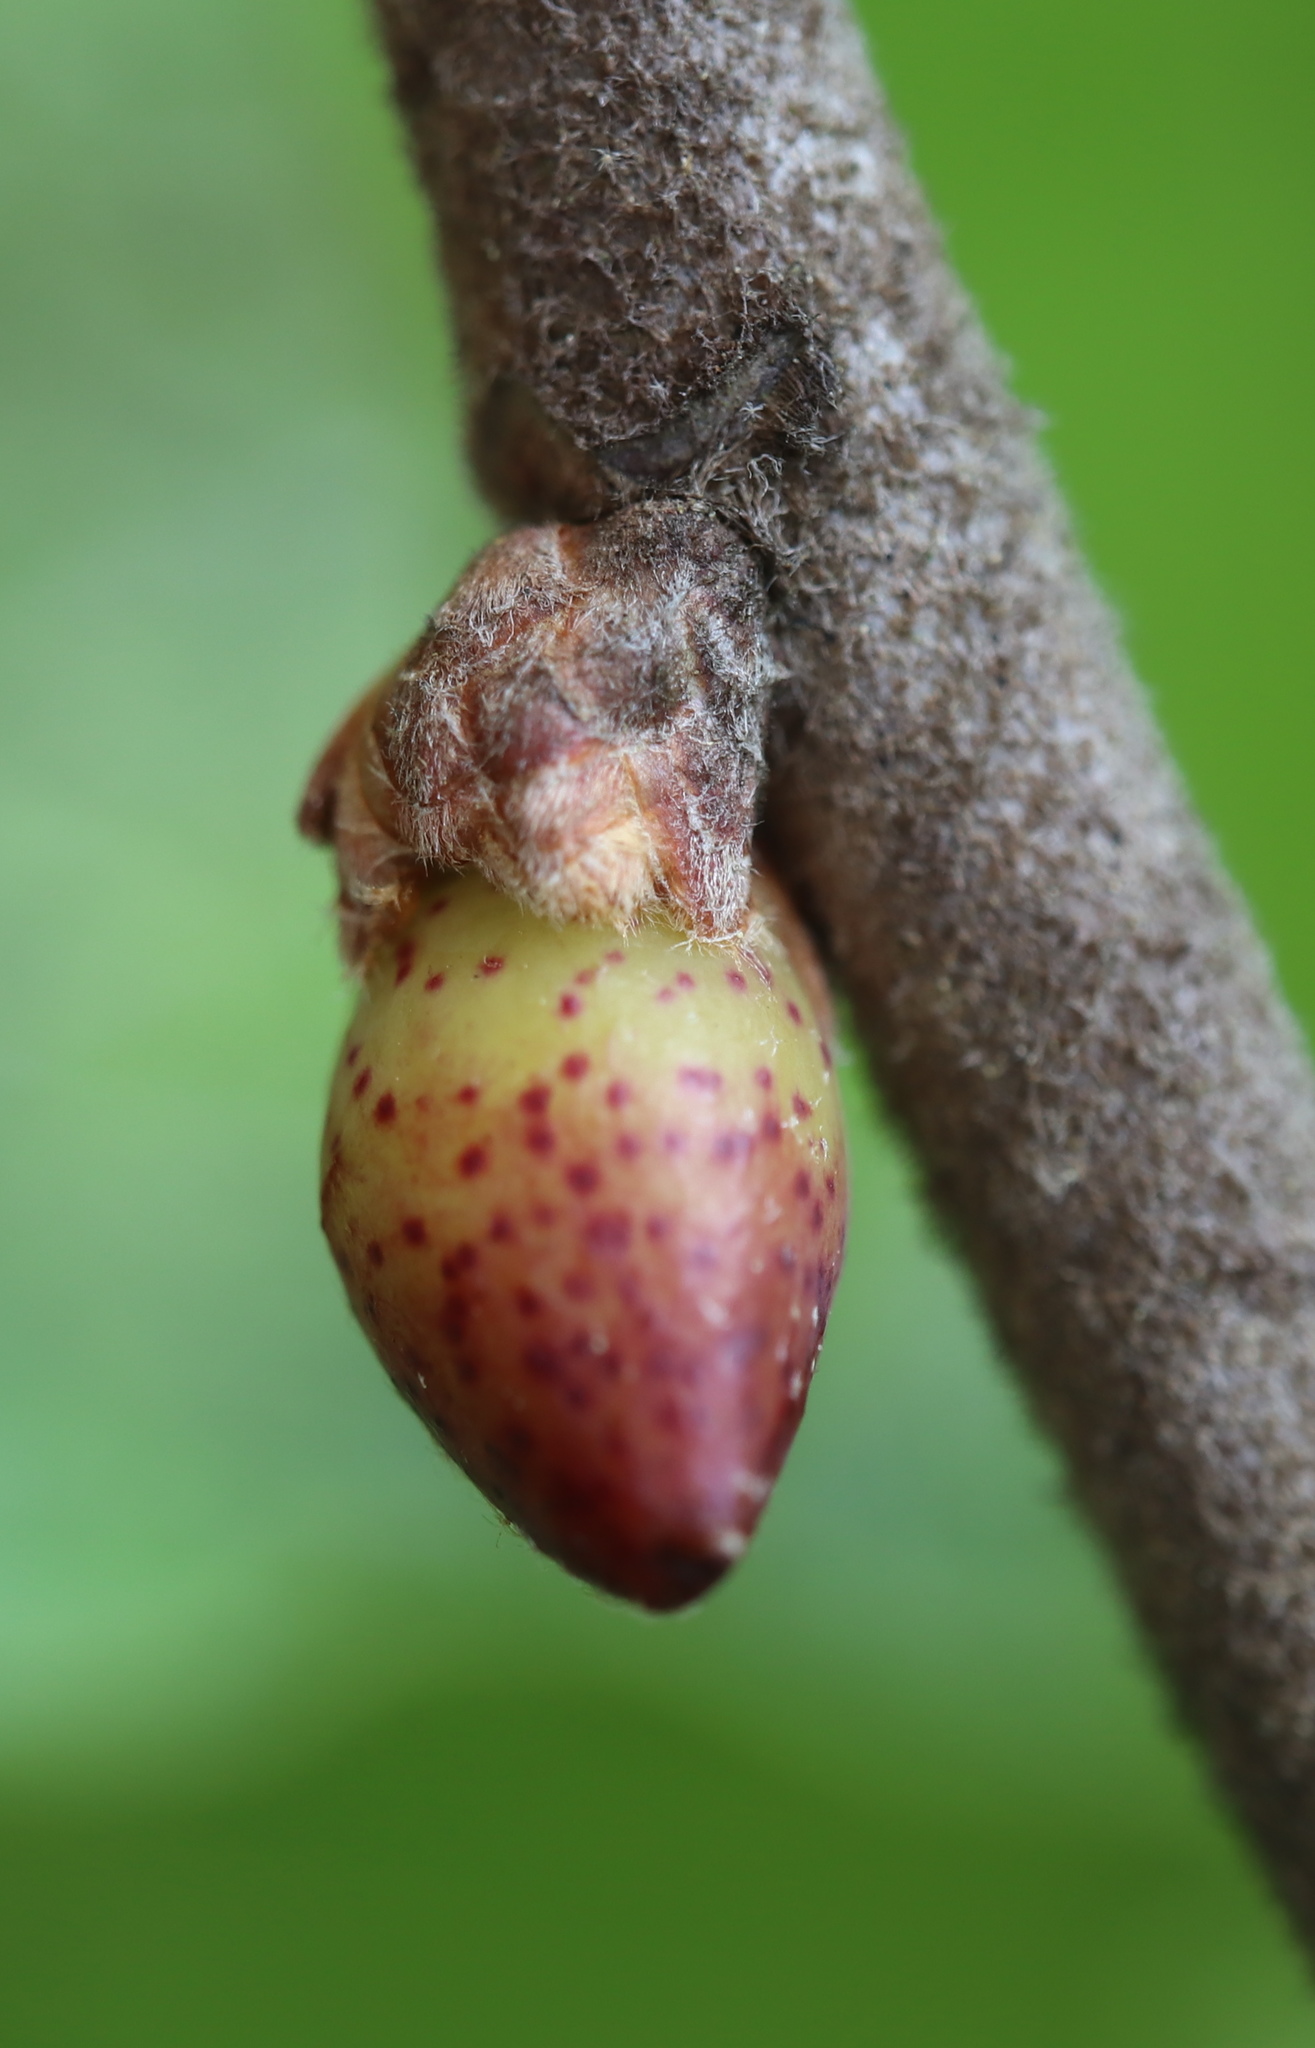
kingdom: Animalia
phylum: Arthropoda
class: Insecta
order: Hymenoptera
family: Cynipidae
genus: Amphibolips
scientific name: Amphibolips
